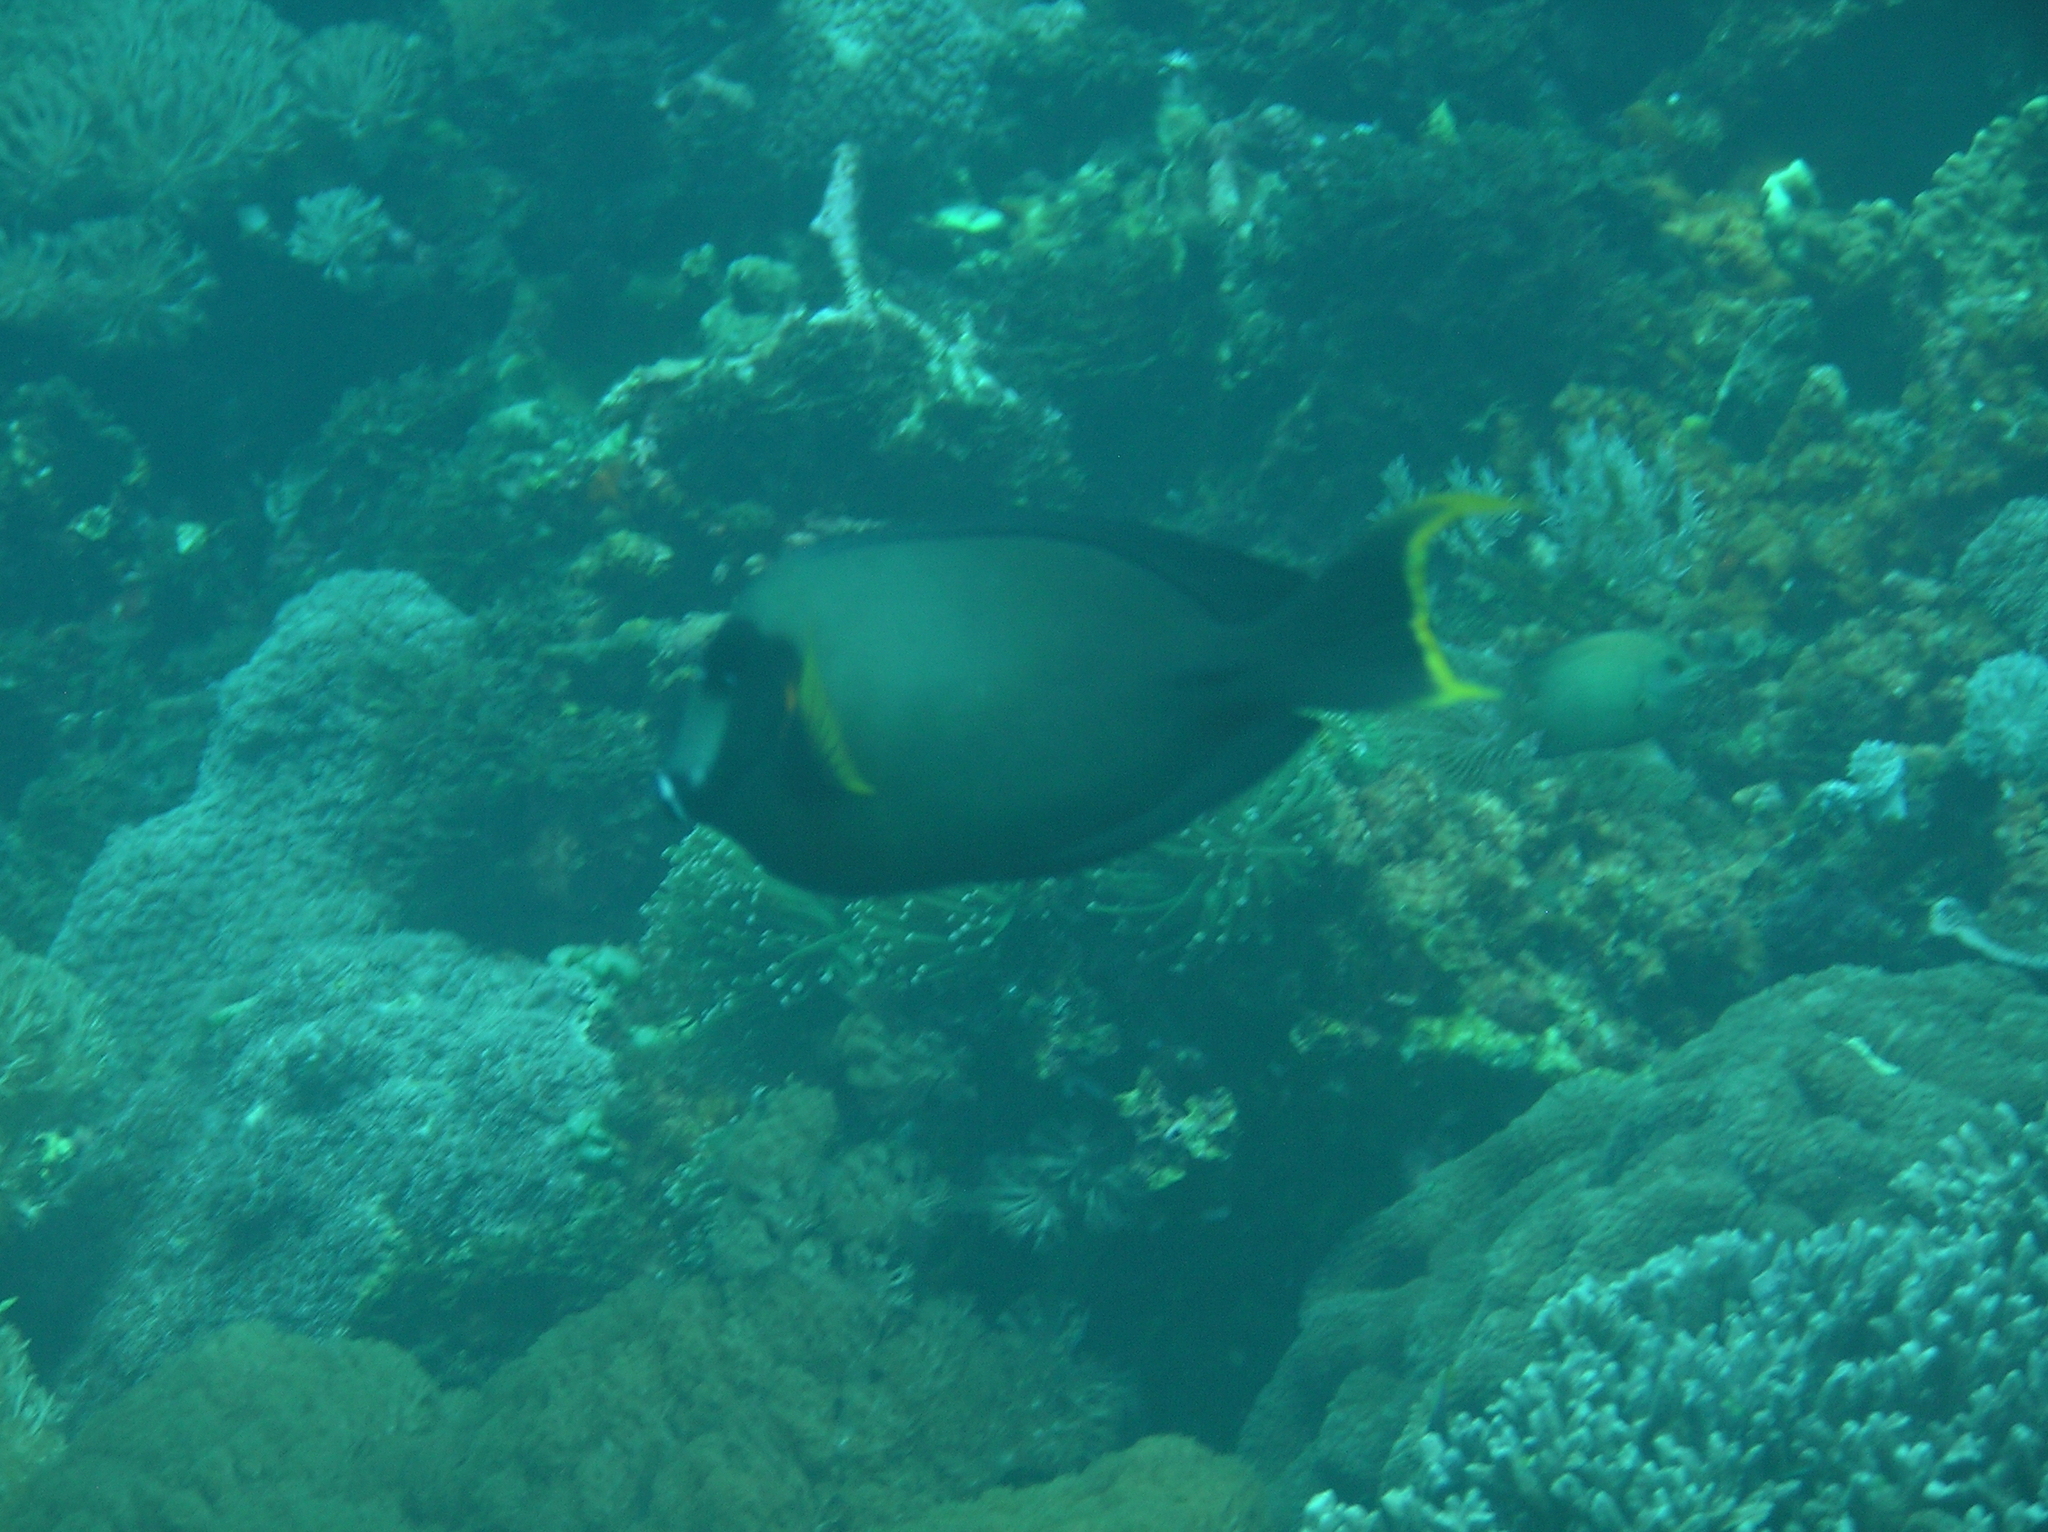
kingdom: Animalia
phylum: Chordata
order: Perciformes
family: Acanthuridae
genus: Acanthurus
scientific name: Acanthurus pyroferus
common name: Chocolate surgeonfish
